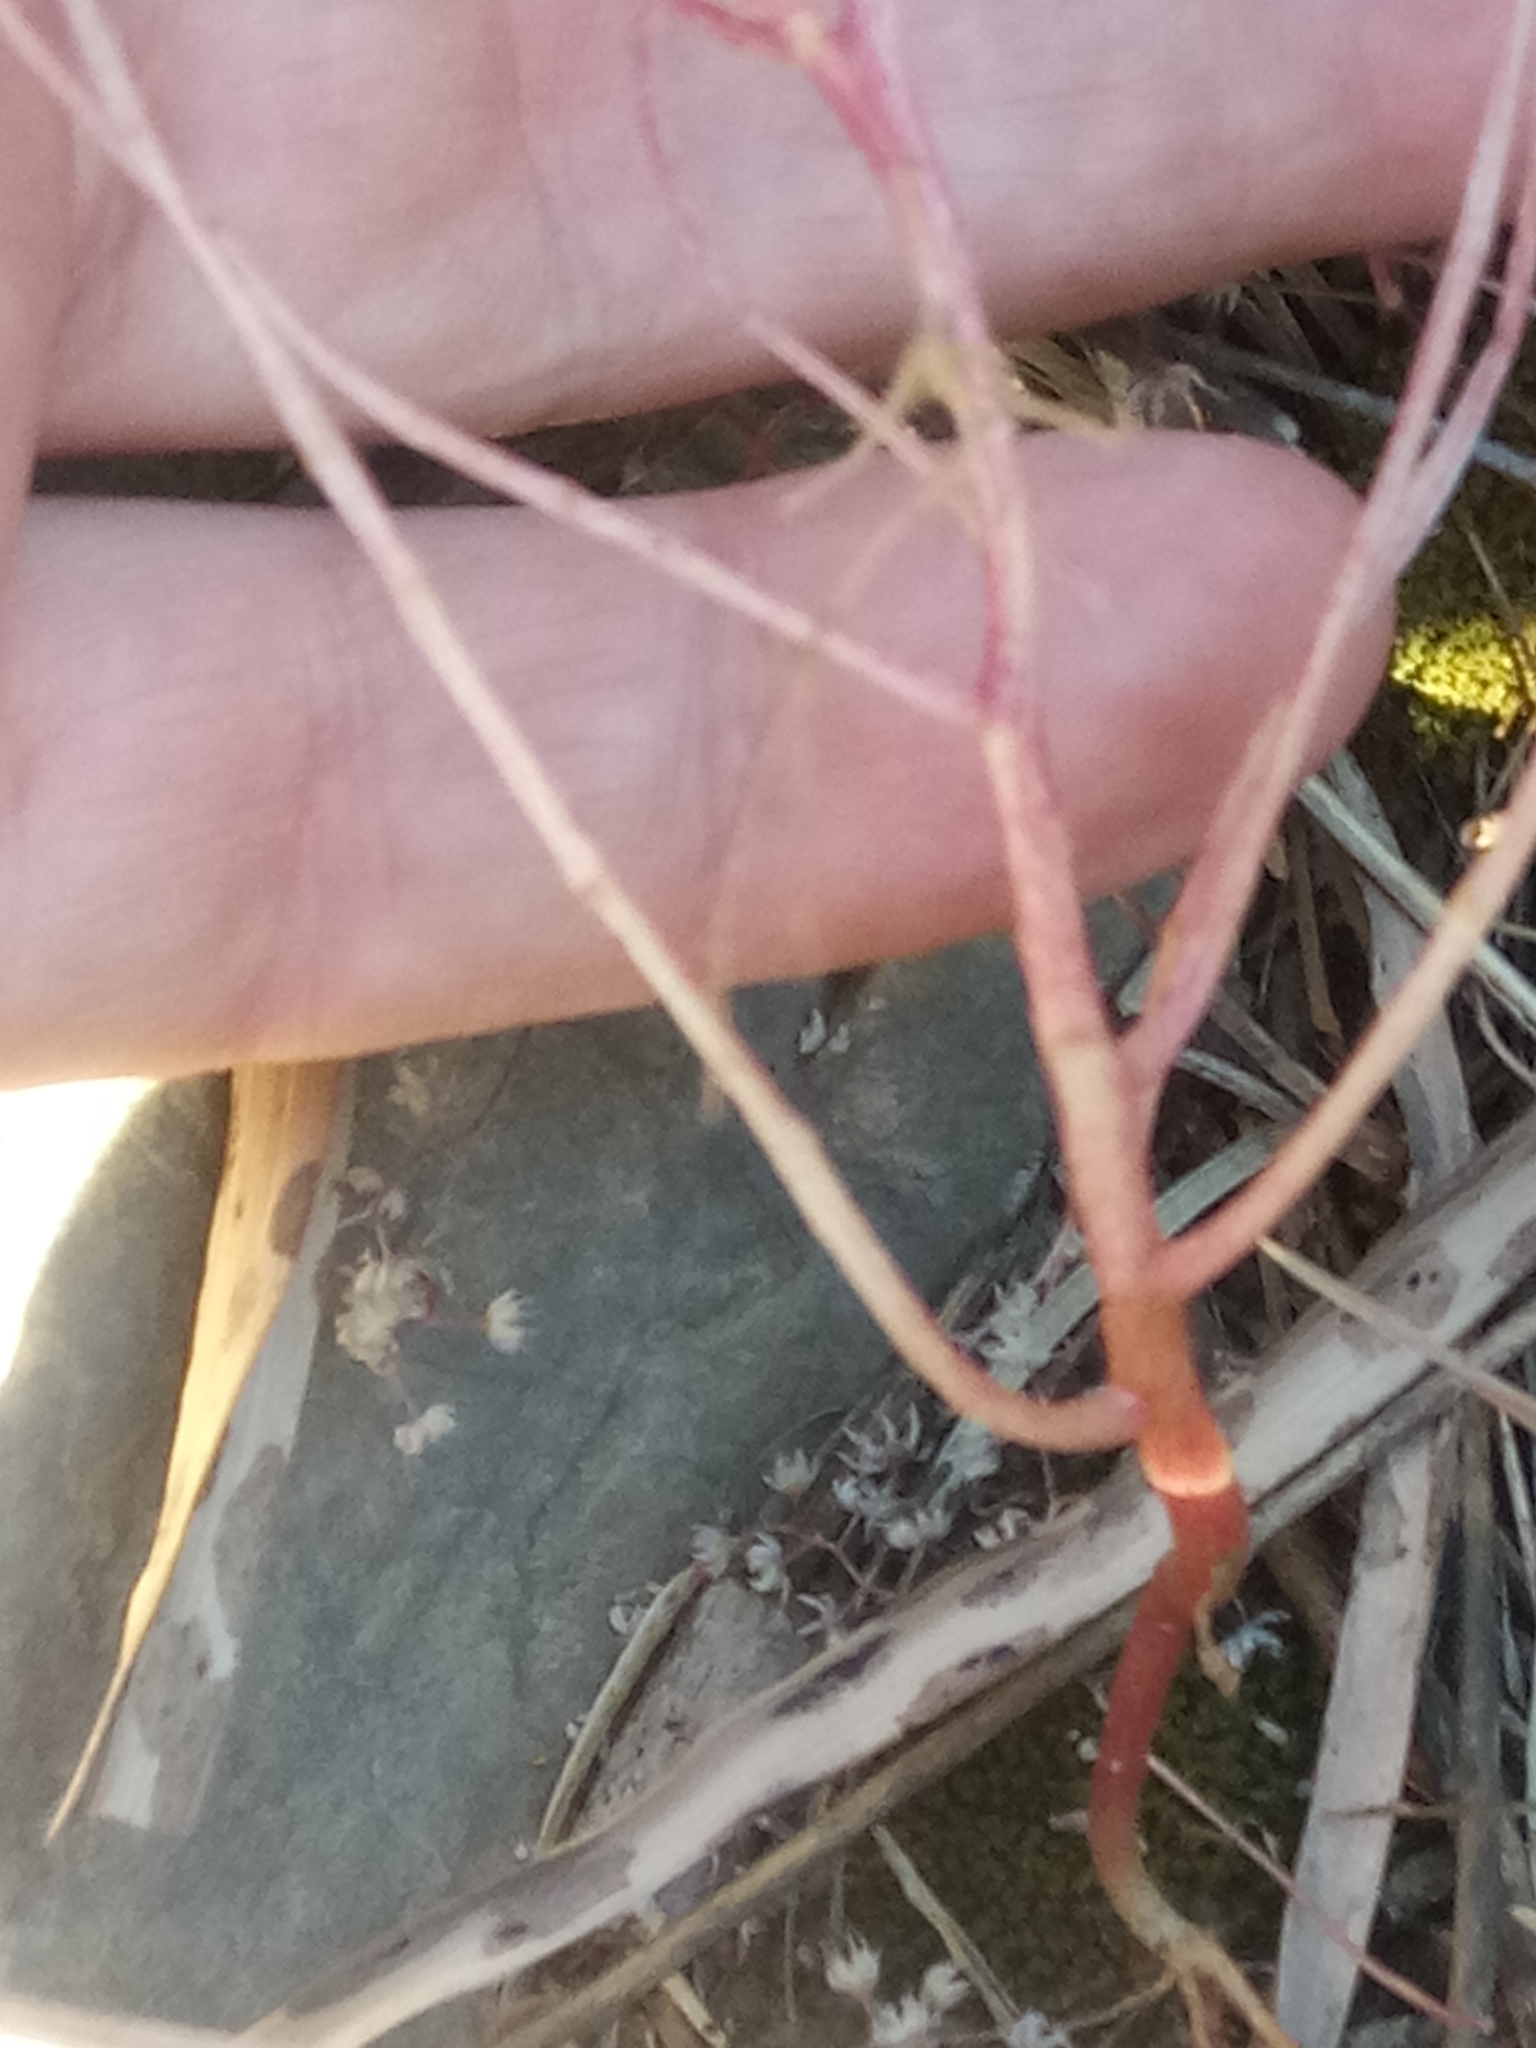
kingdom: Plantae
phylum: Tracheophyta
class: Magnoliopsida
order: Saxifragales
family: Crassulaceae
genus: Sedum
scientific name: Sedum caeruleum
